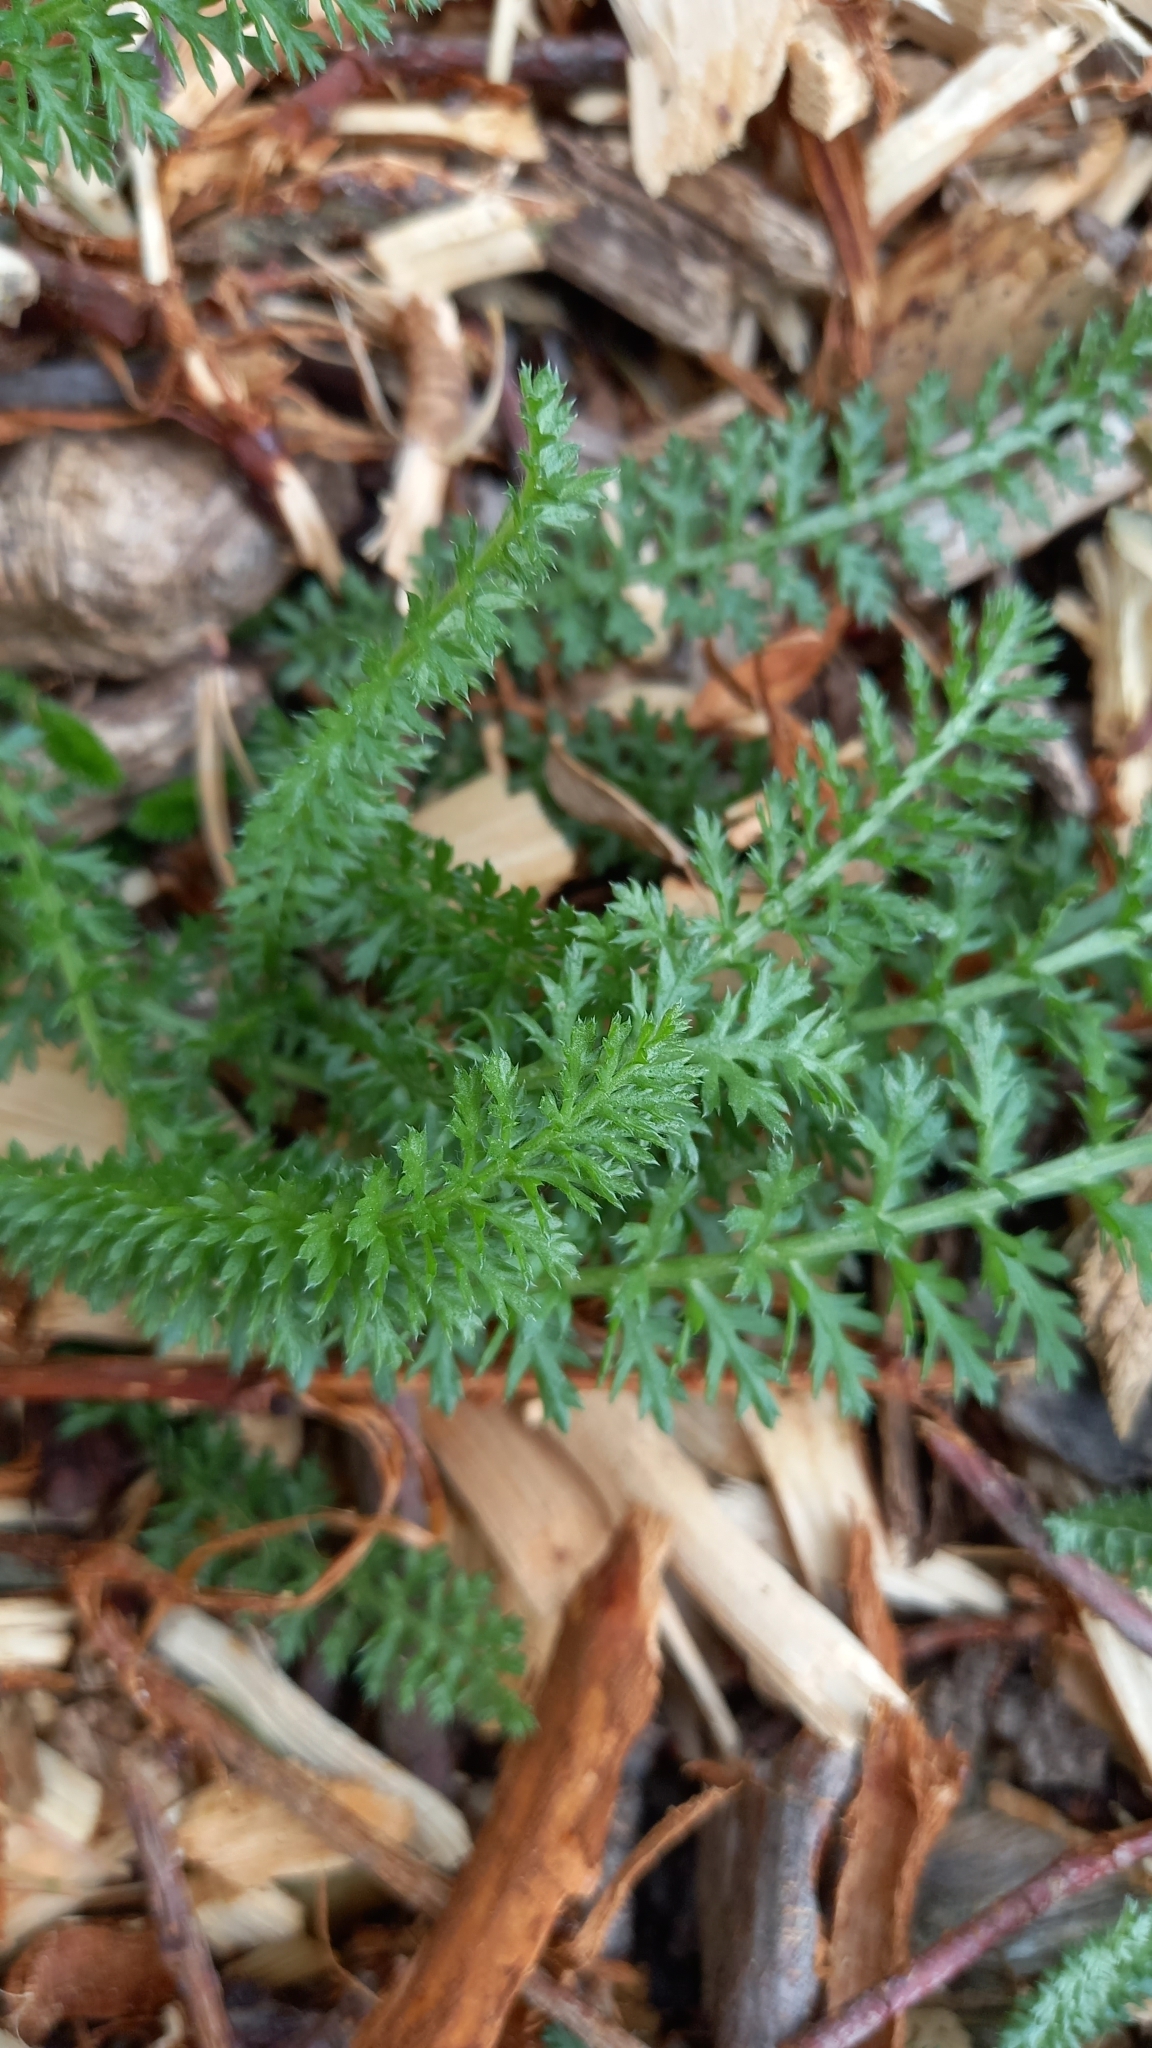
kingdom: Plantae
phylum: Tracheophyta
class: Magnoliopsida
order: Asterales
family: Asteraceae
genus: Achillea
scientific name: Achillea millefolium
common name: Yarrow
